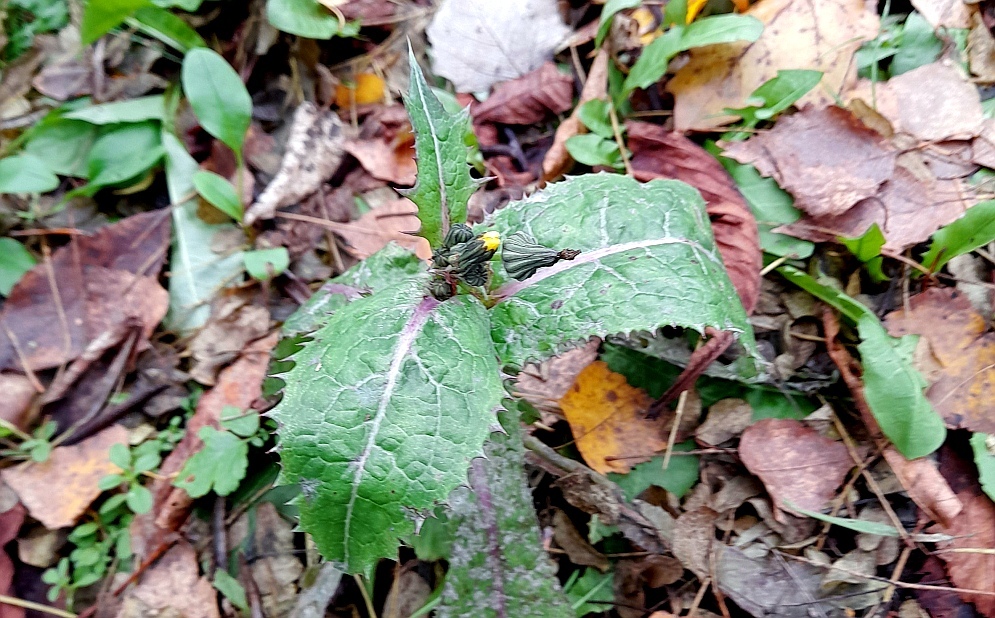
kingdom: Plantae
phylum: Tracheophyta
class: Magnoliopsida
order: Asterales
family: Asteraceae
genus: Sonchus
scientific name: Sonchus asper
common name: Prickly sow-thistle
